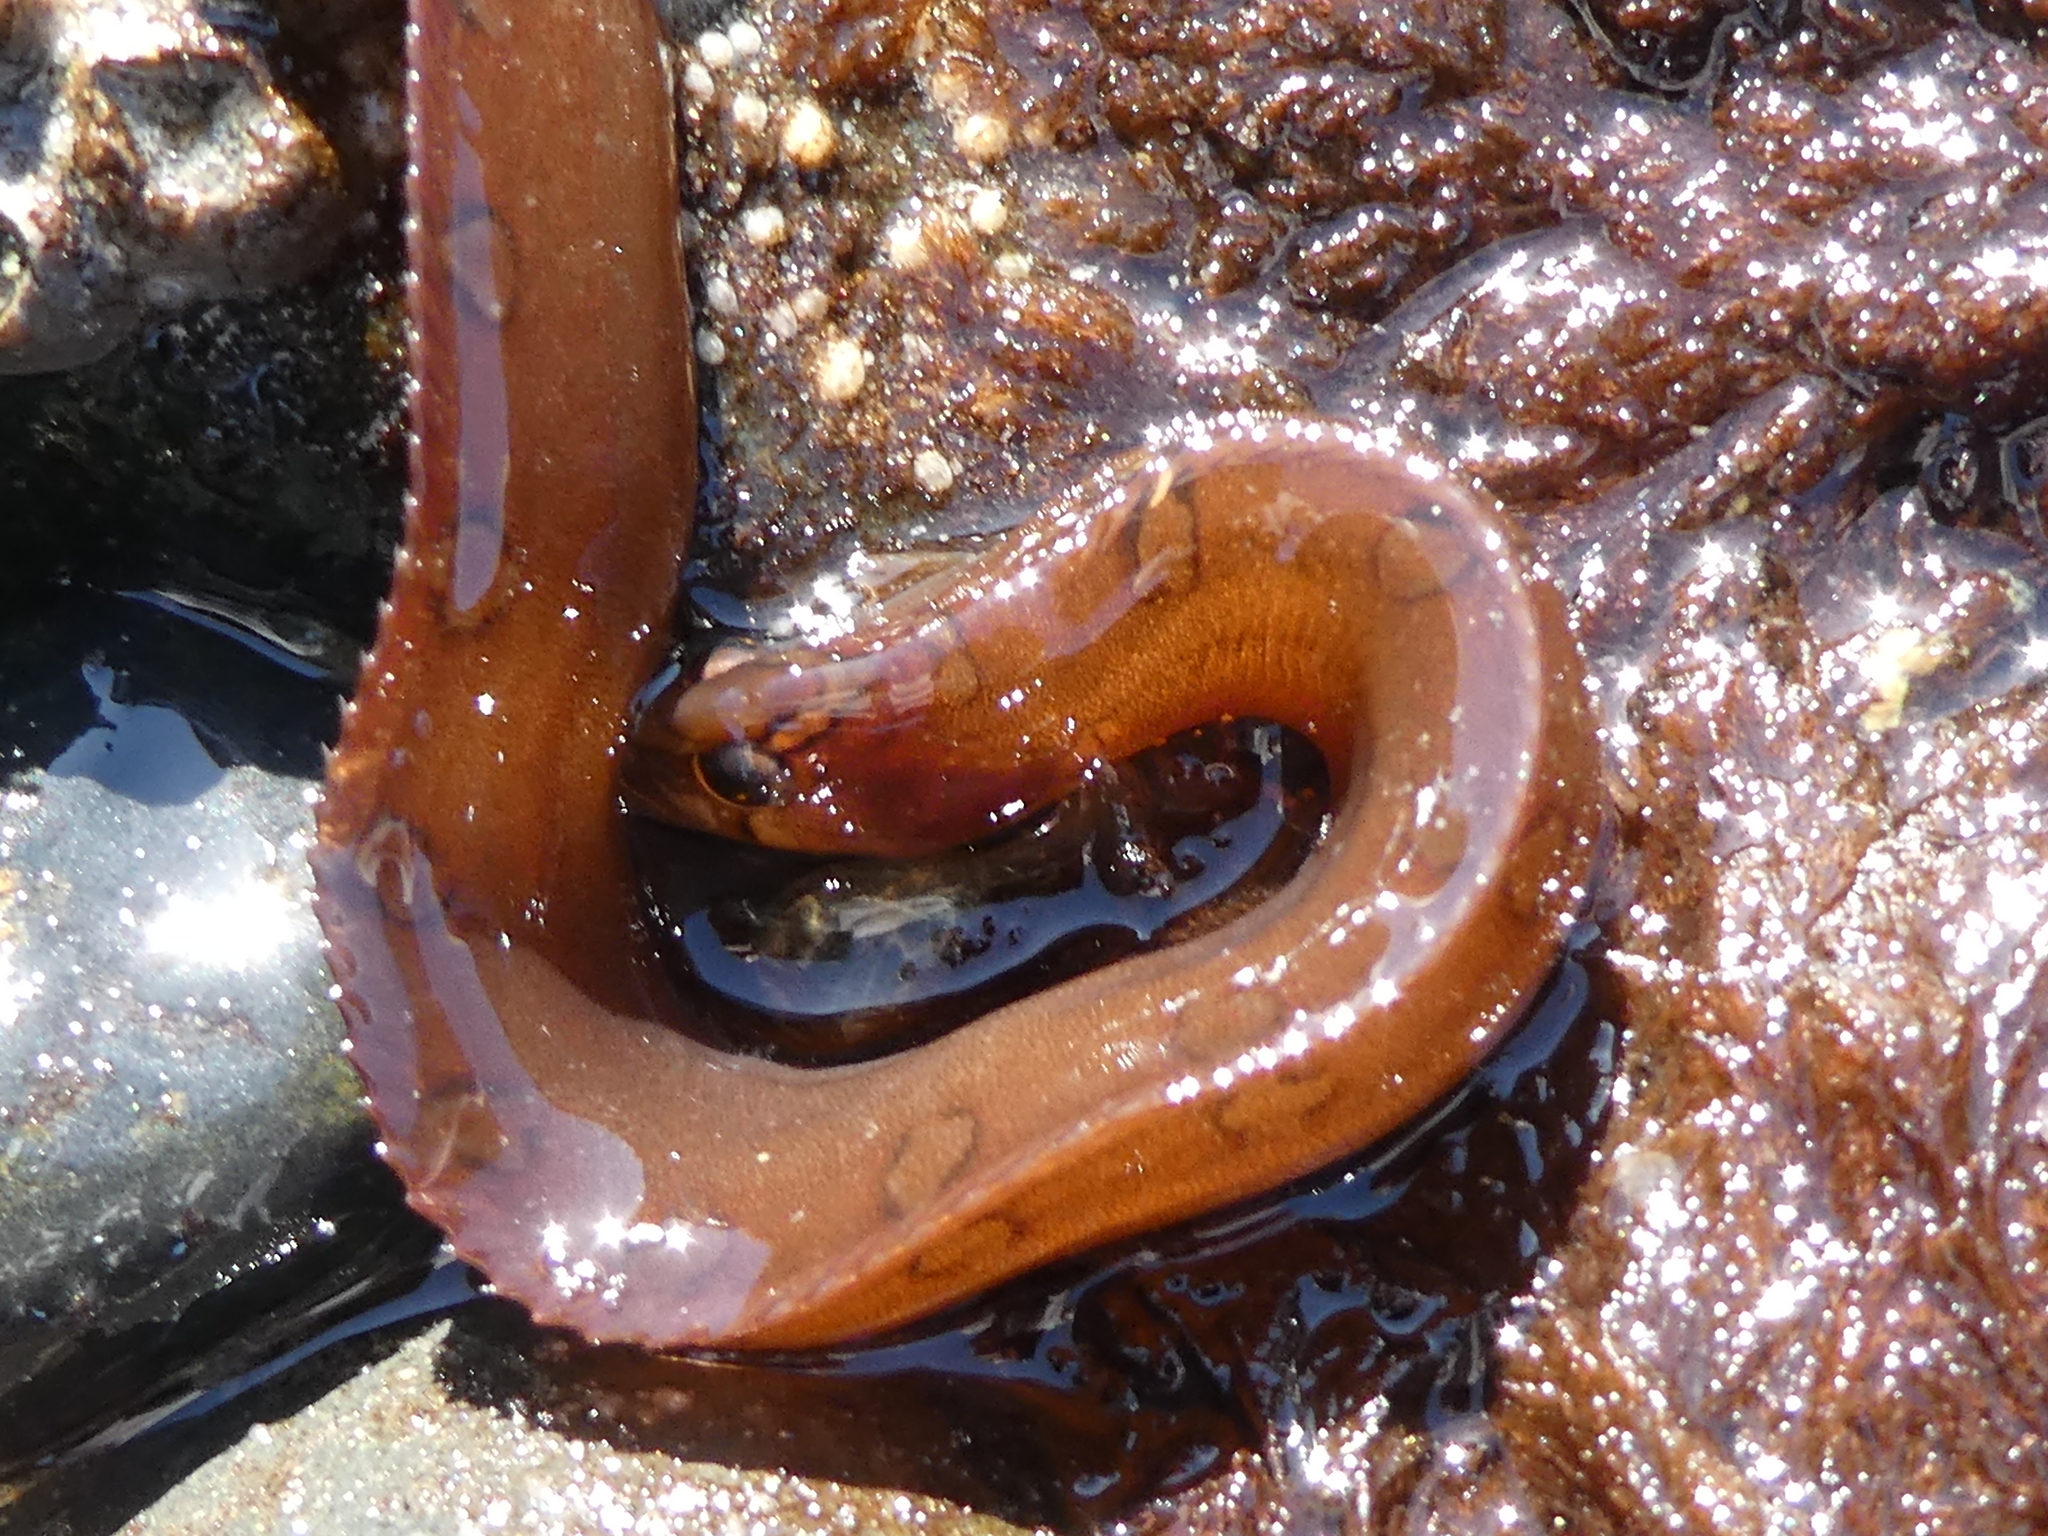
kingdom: Animalia
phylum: Chordata
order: Perciformes
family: Pholidae
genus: Pholis
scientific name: Pholis laeta
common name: Crescent gunnel
